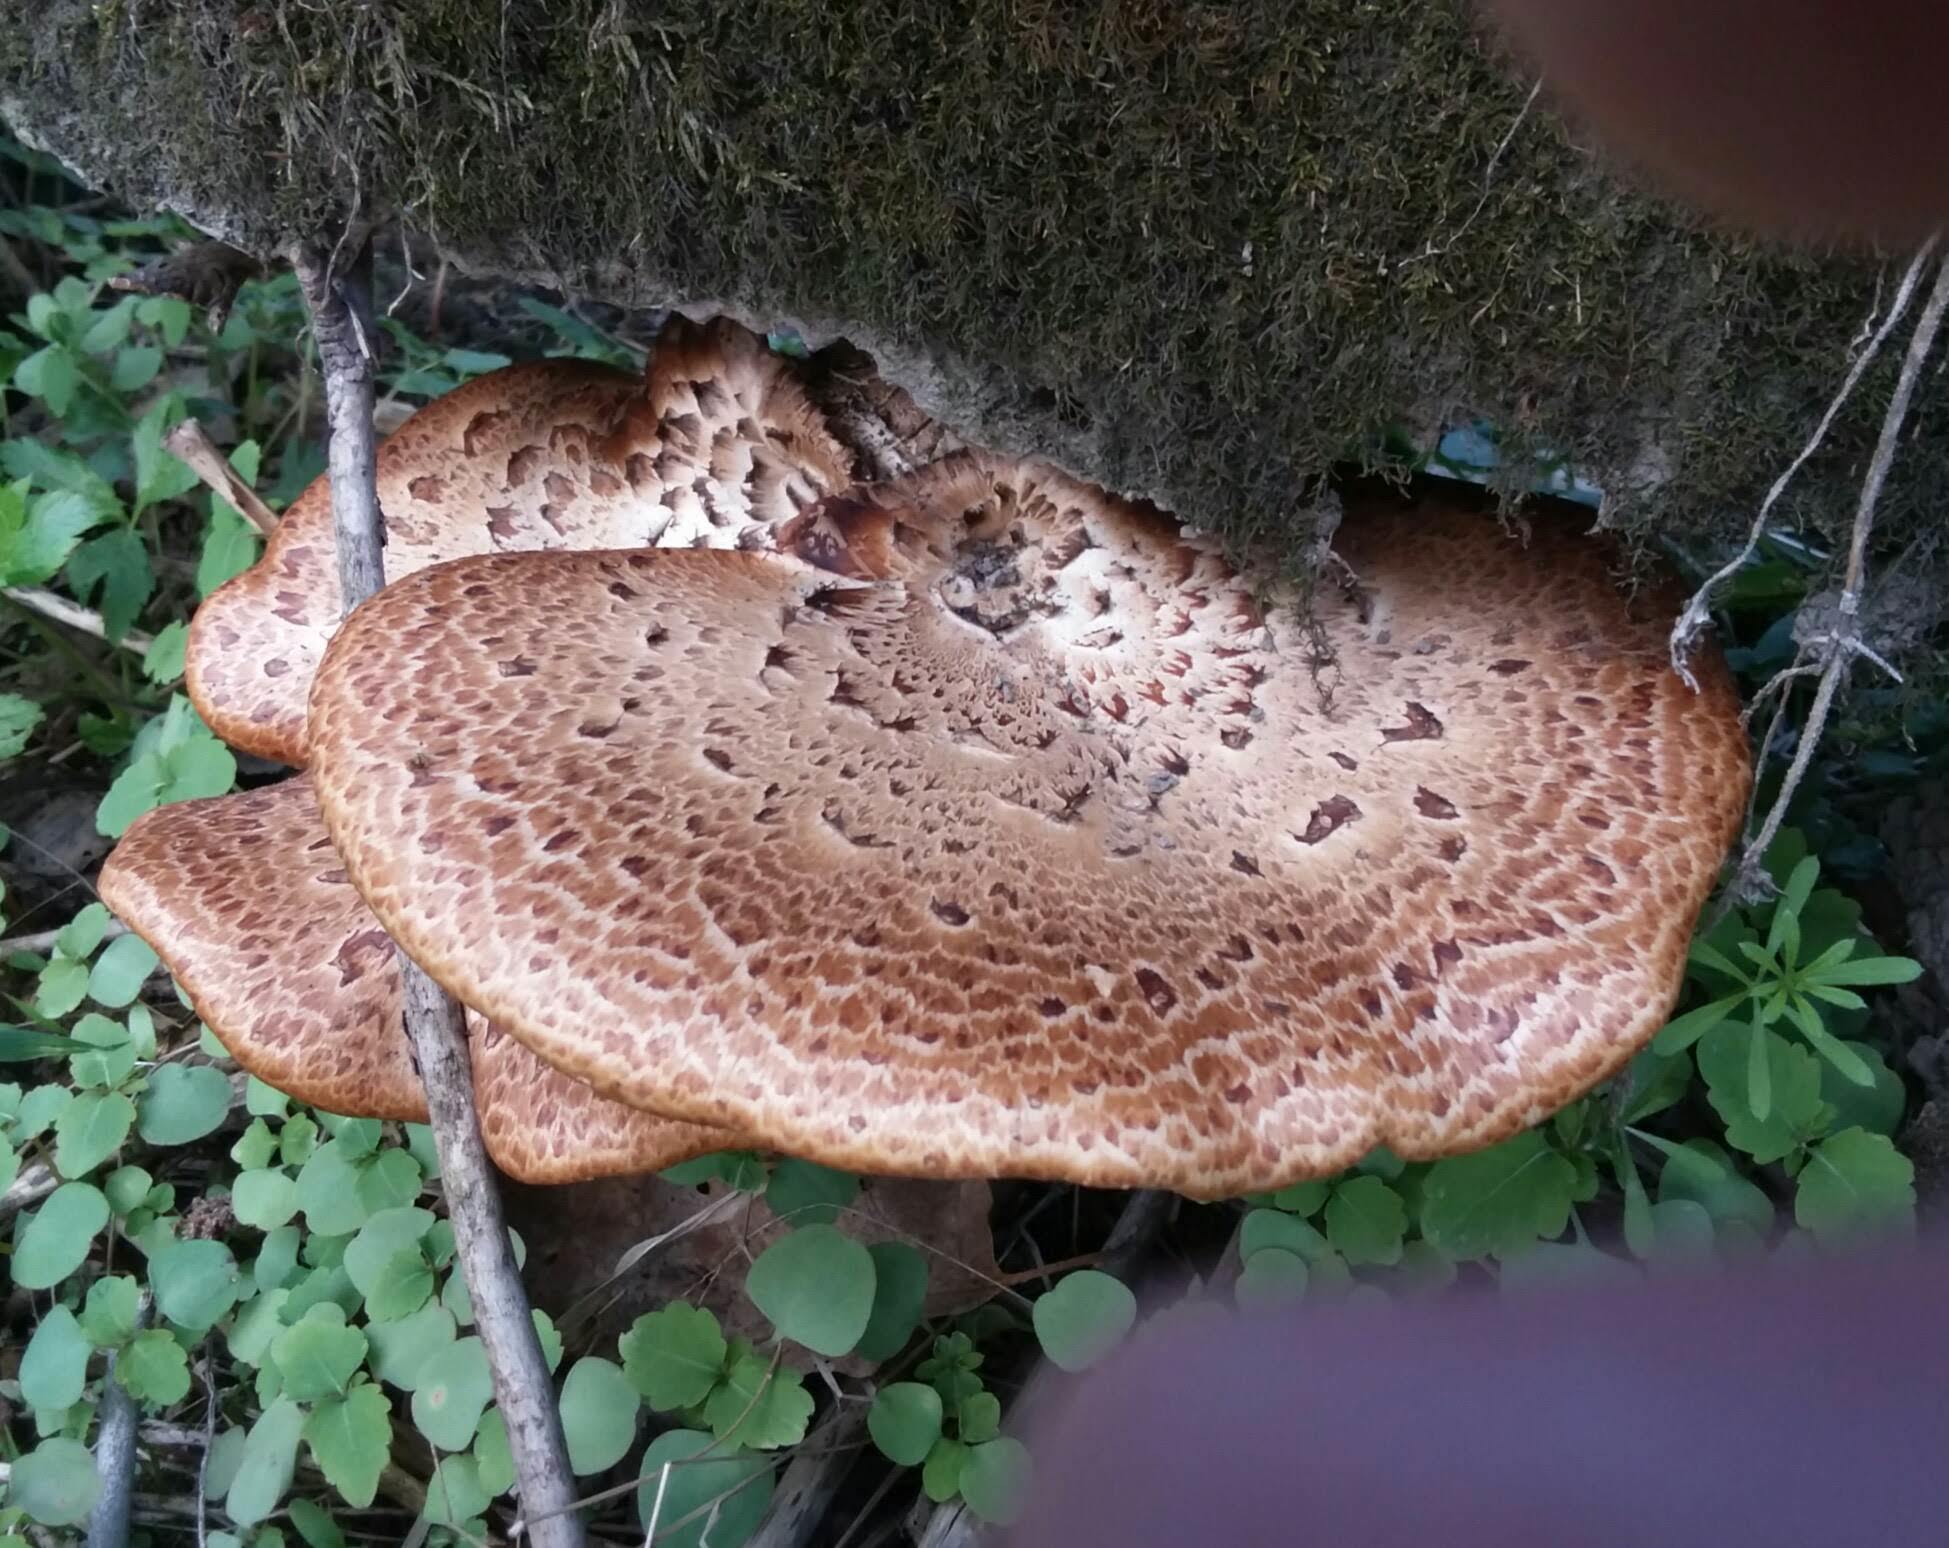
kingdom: Fungi
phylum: Basidiomycota
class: Agaricomycetes
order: Polyporales
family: Polyporaceae
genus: Cerioporus
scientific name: Cerioporus squamosus
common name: Dryad's saddle
